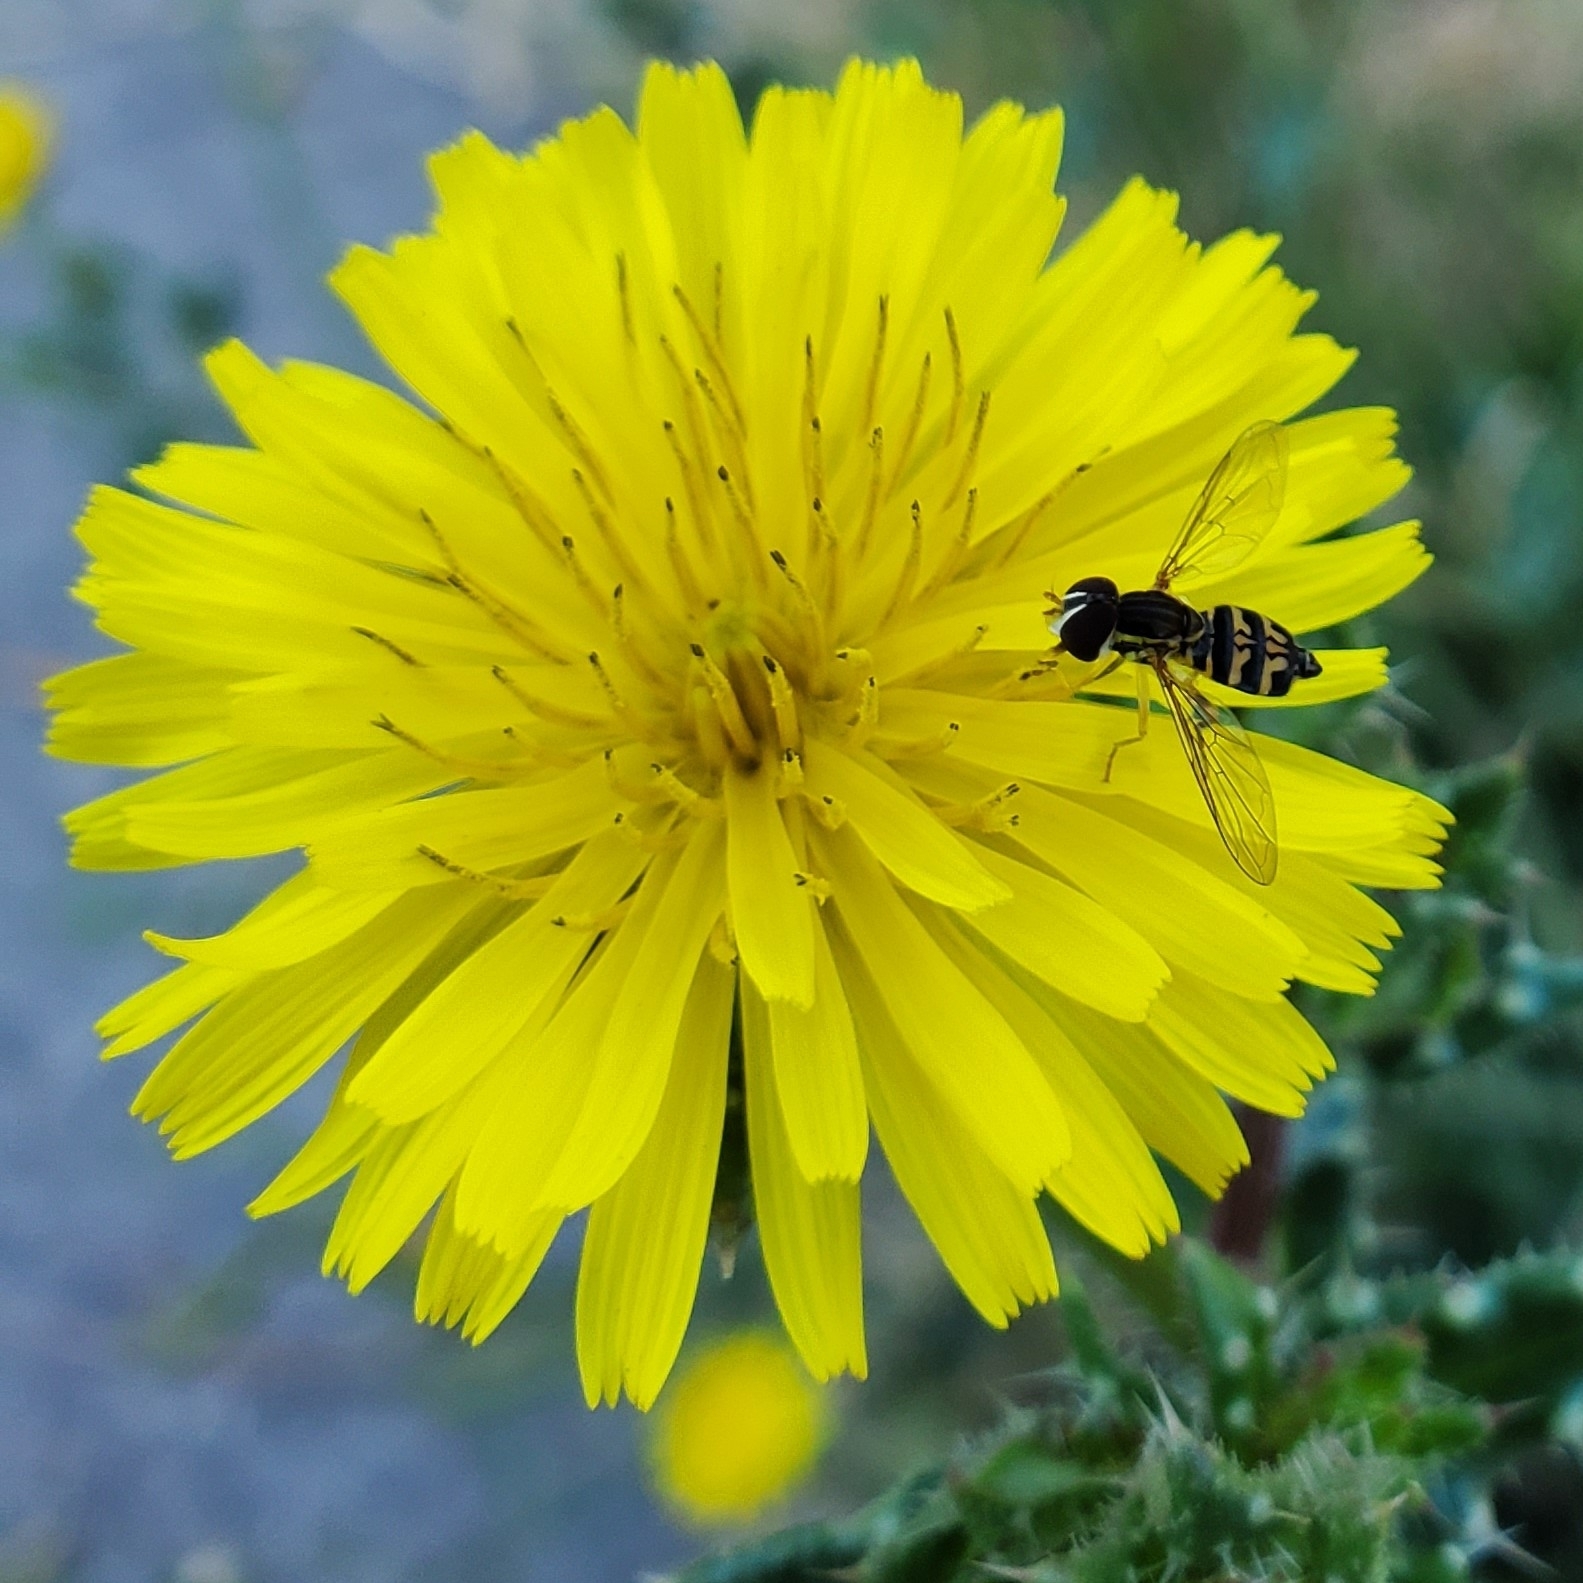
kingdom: Animalia
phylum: Arthropoda
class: Insecta
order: Diptera
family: Syrphidae
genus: Toxomerus
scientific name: Toxomerus occidentalis
